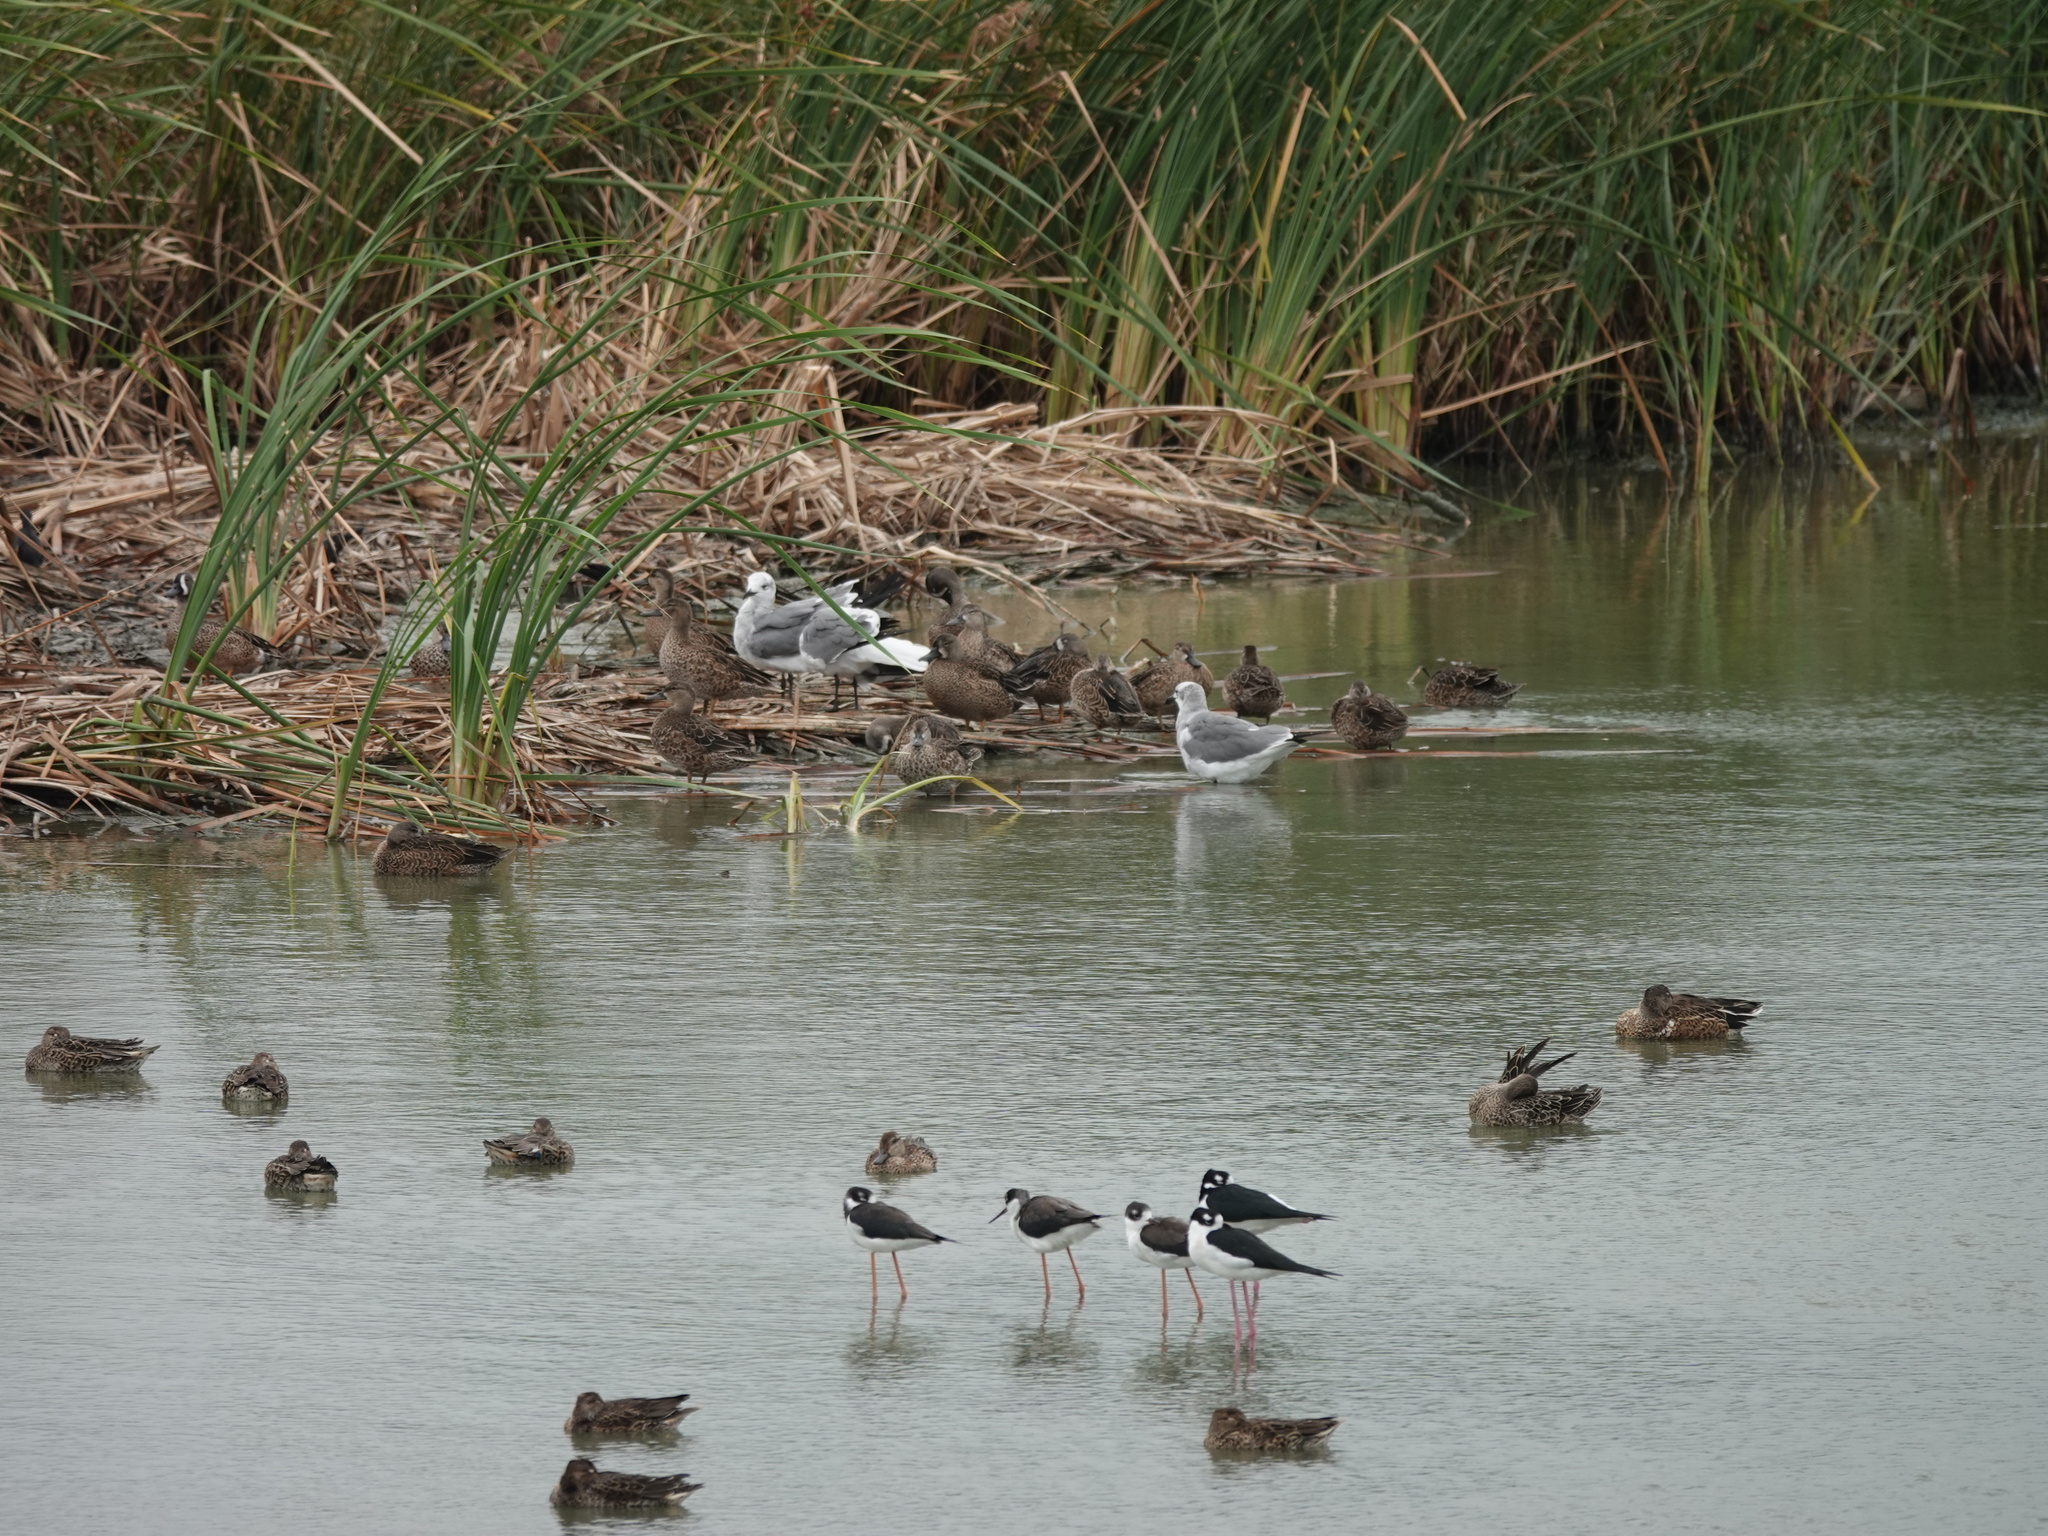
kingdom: Animalia
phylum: Chordata
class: Aves
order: Anseriformes
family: Anatidae
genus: Spatula
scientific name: Spatula discors
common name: Blue-winged teal
